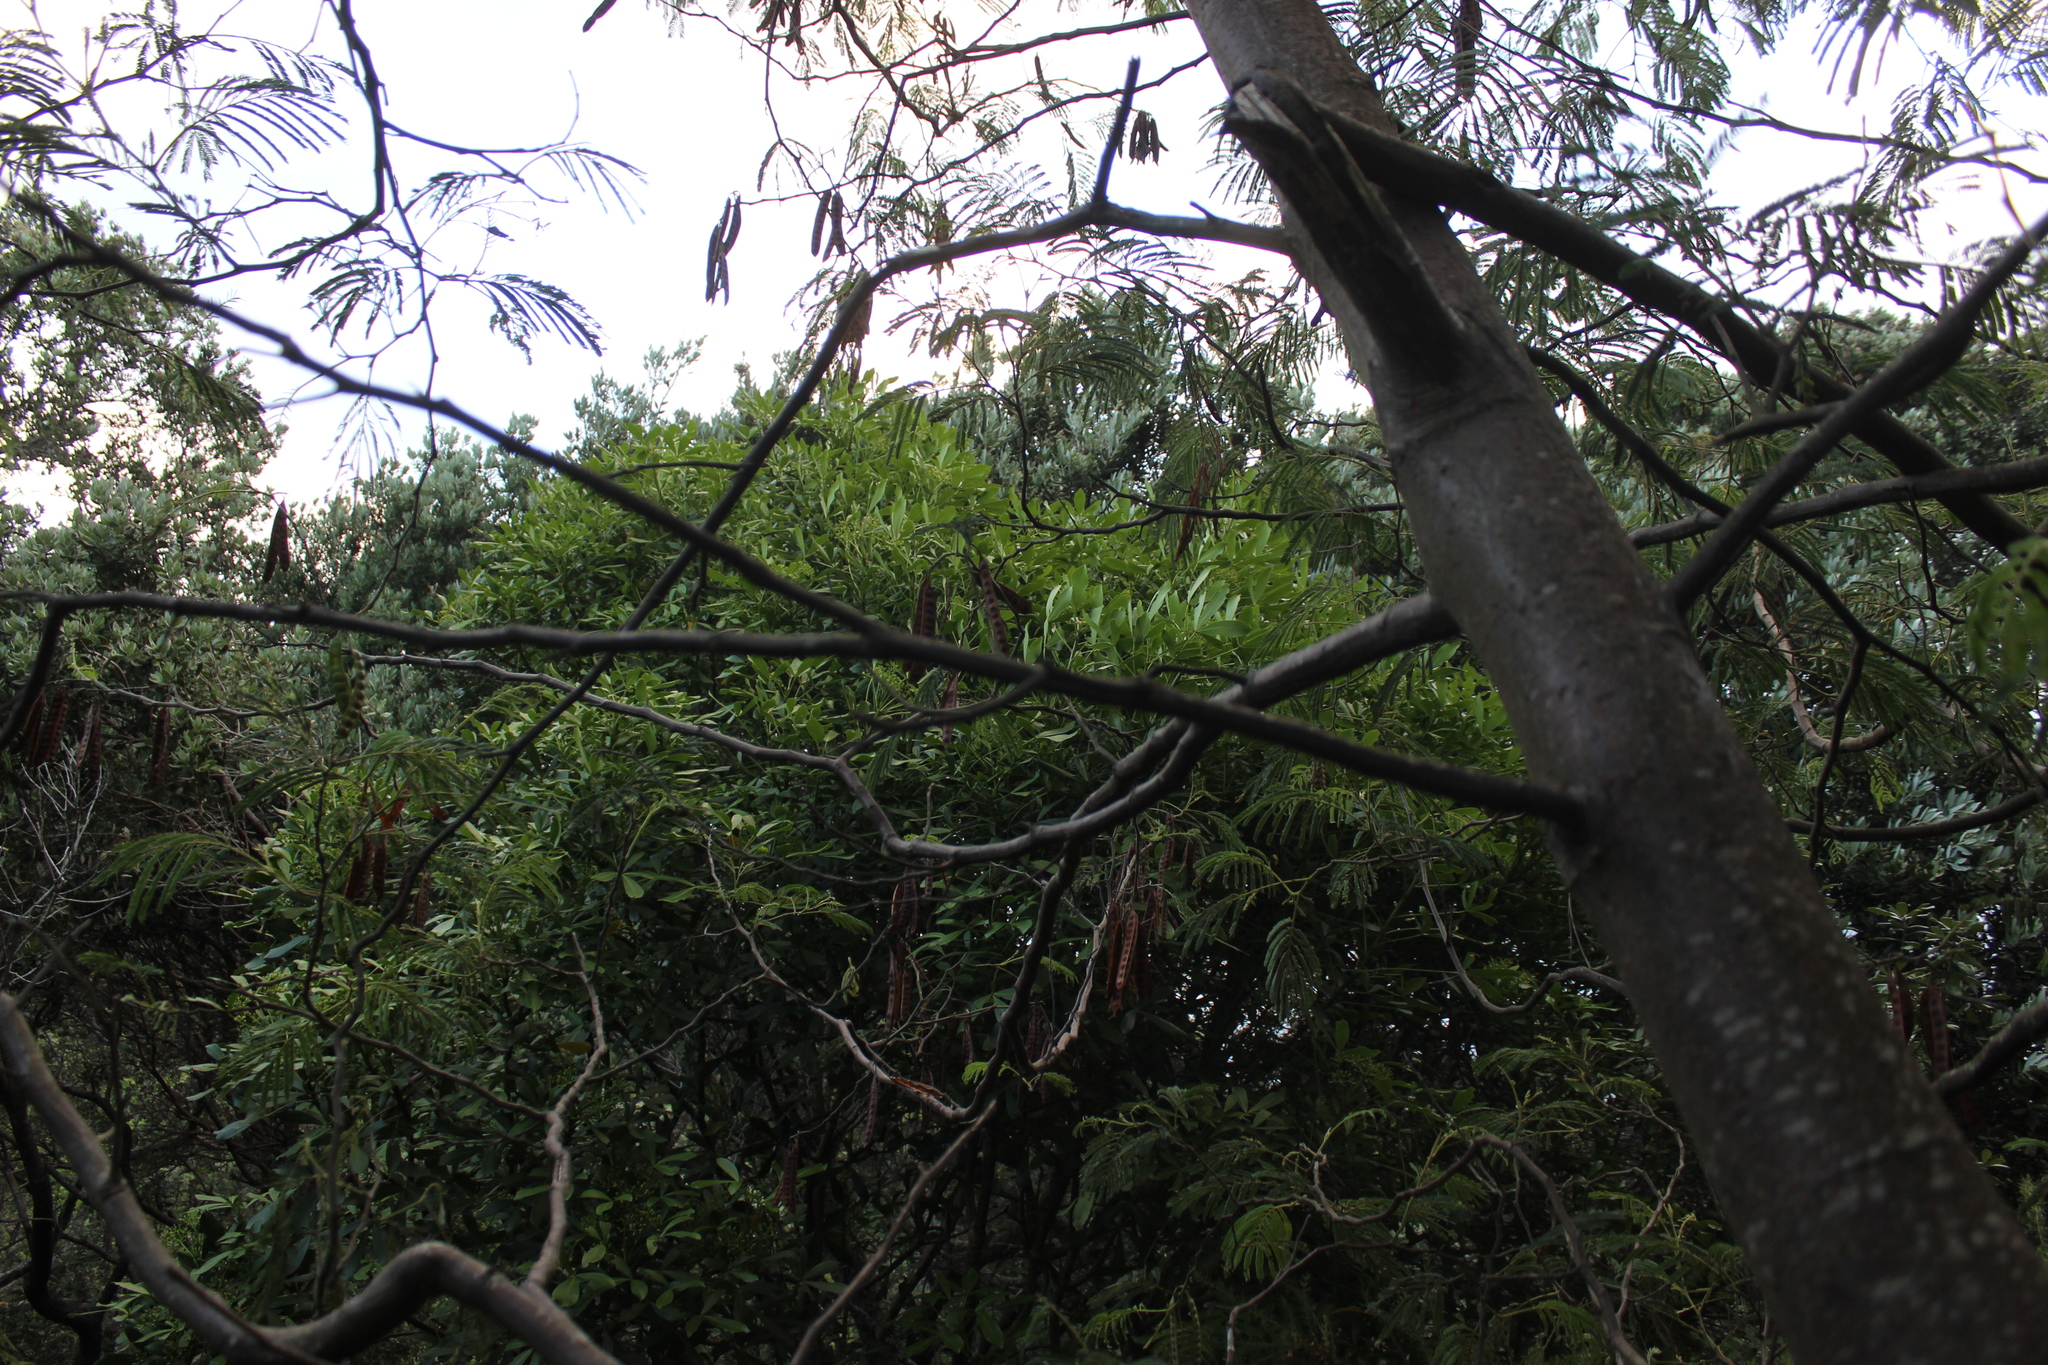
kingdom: Plantae
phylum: Tracheophyta
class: Magnoliopsida
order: Fabales
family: Fabaceae
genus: Paraserianthes
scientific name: Paraserianthes lophantha
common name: Plume albizia
